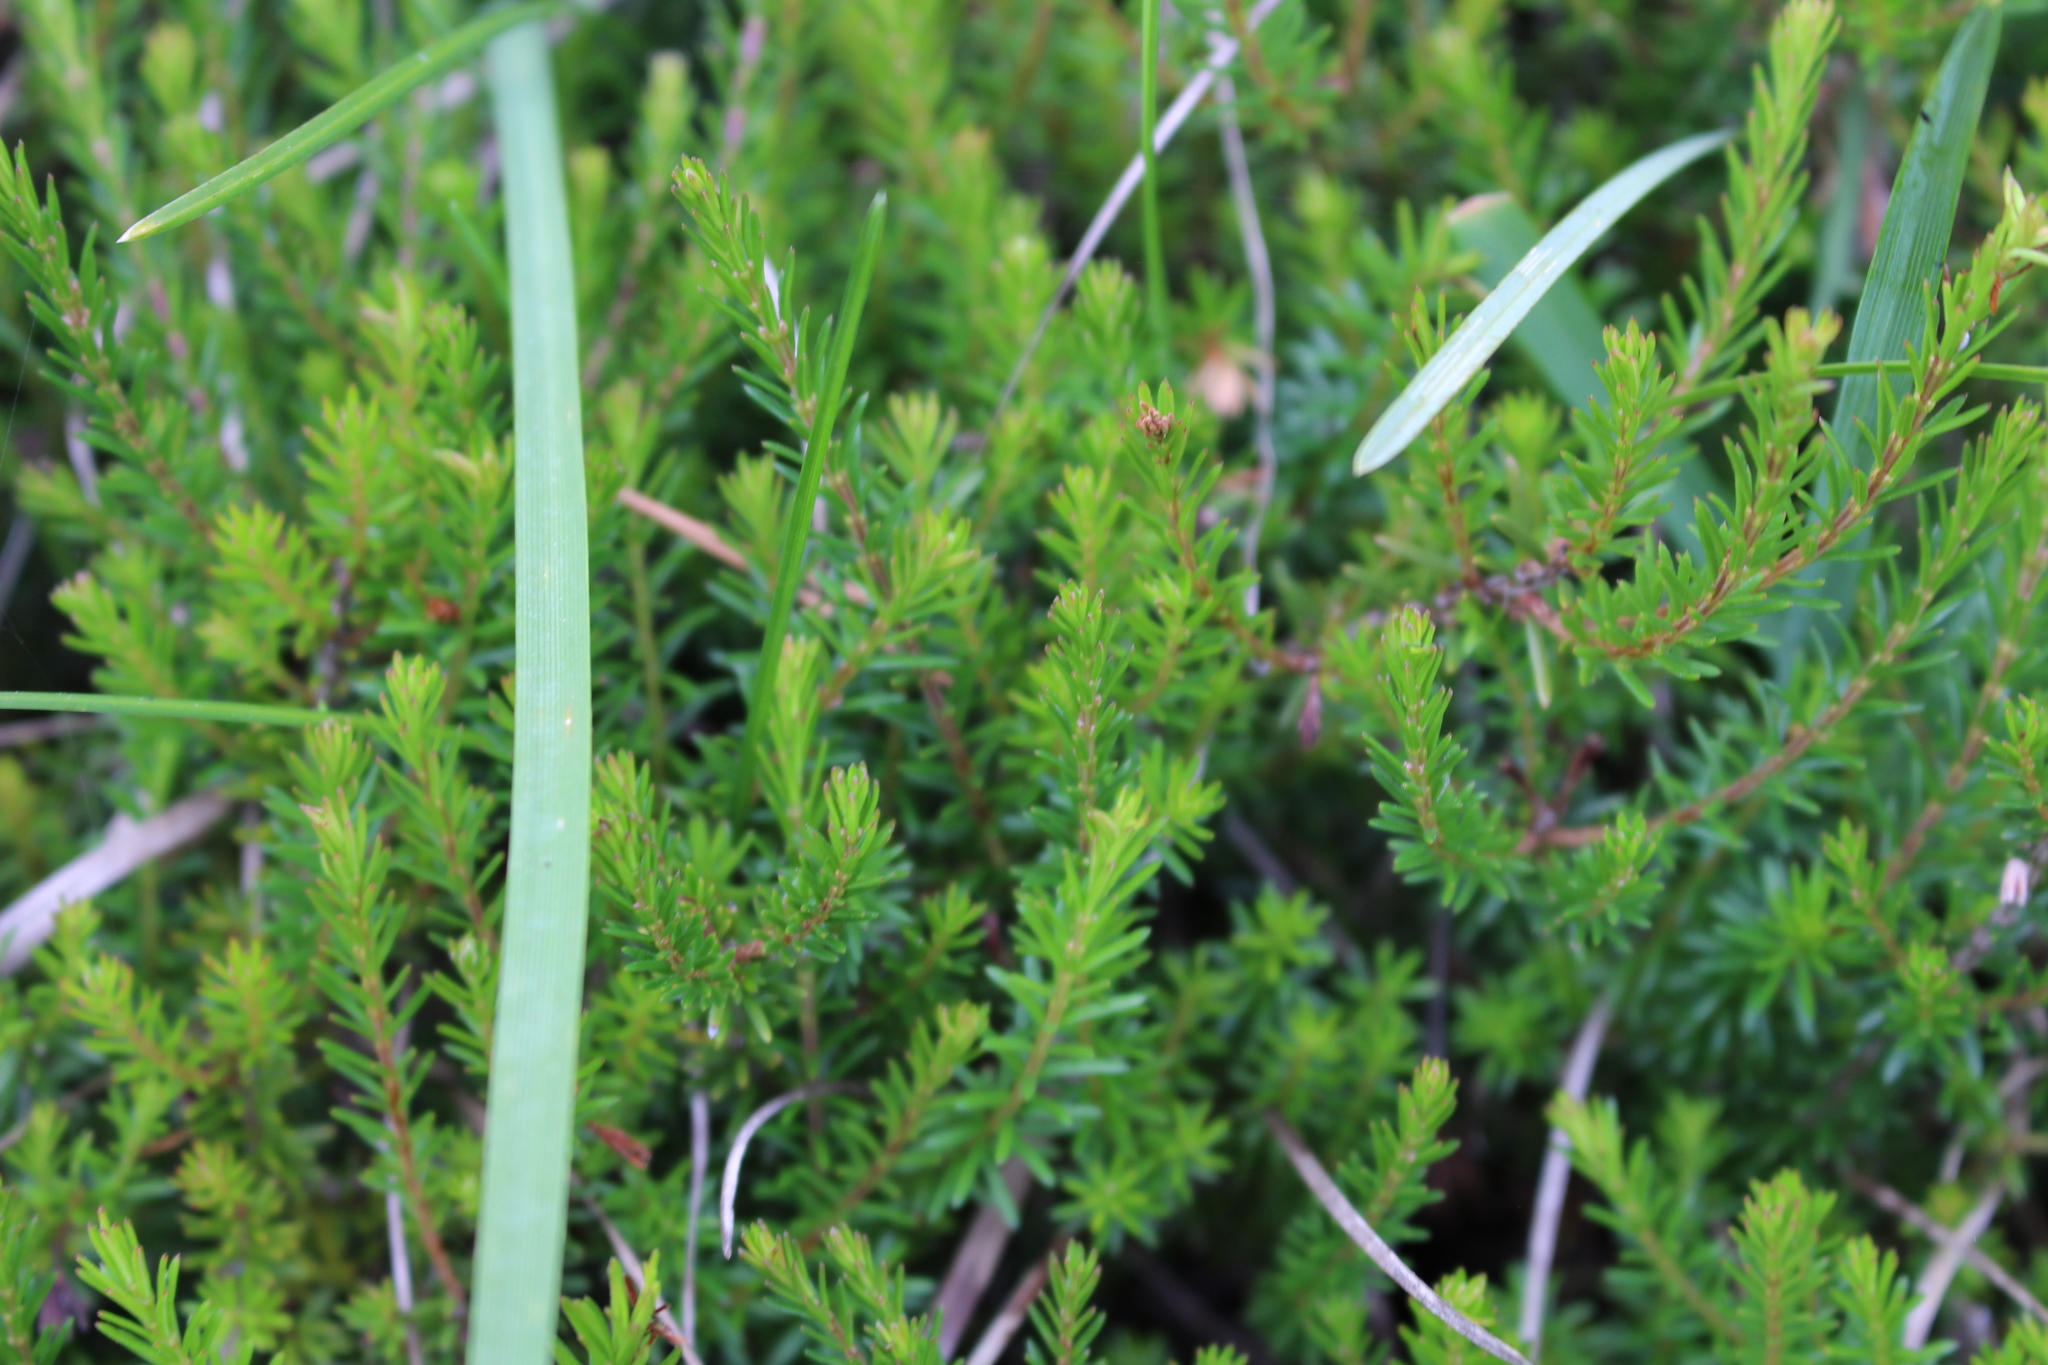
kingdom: Plantae
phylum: Tracheophyta
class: Magnoliopsida
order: Ericales
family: Ericaceae
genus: Erica
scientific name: Erica carnea
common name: Winter heath
